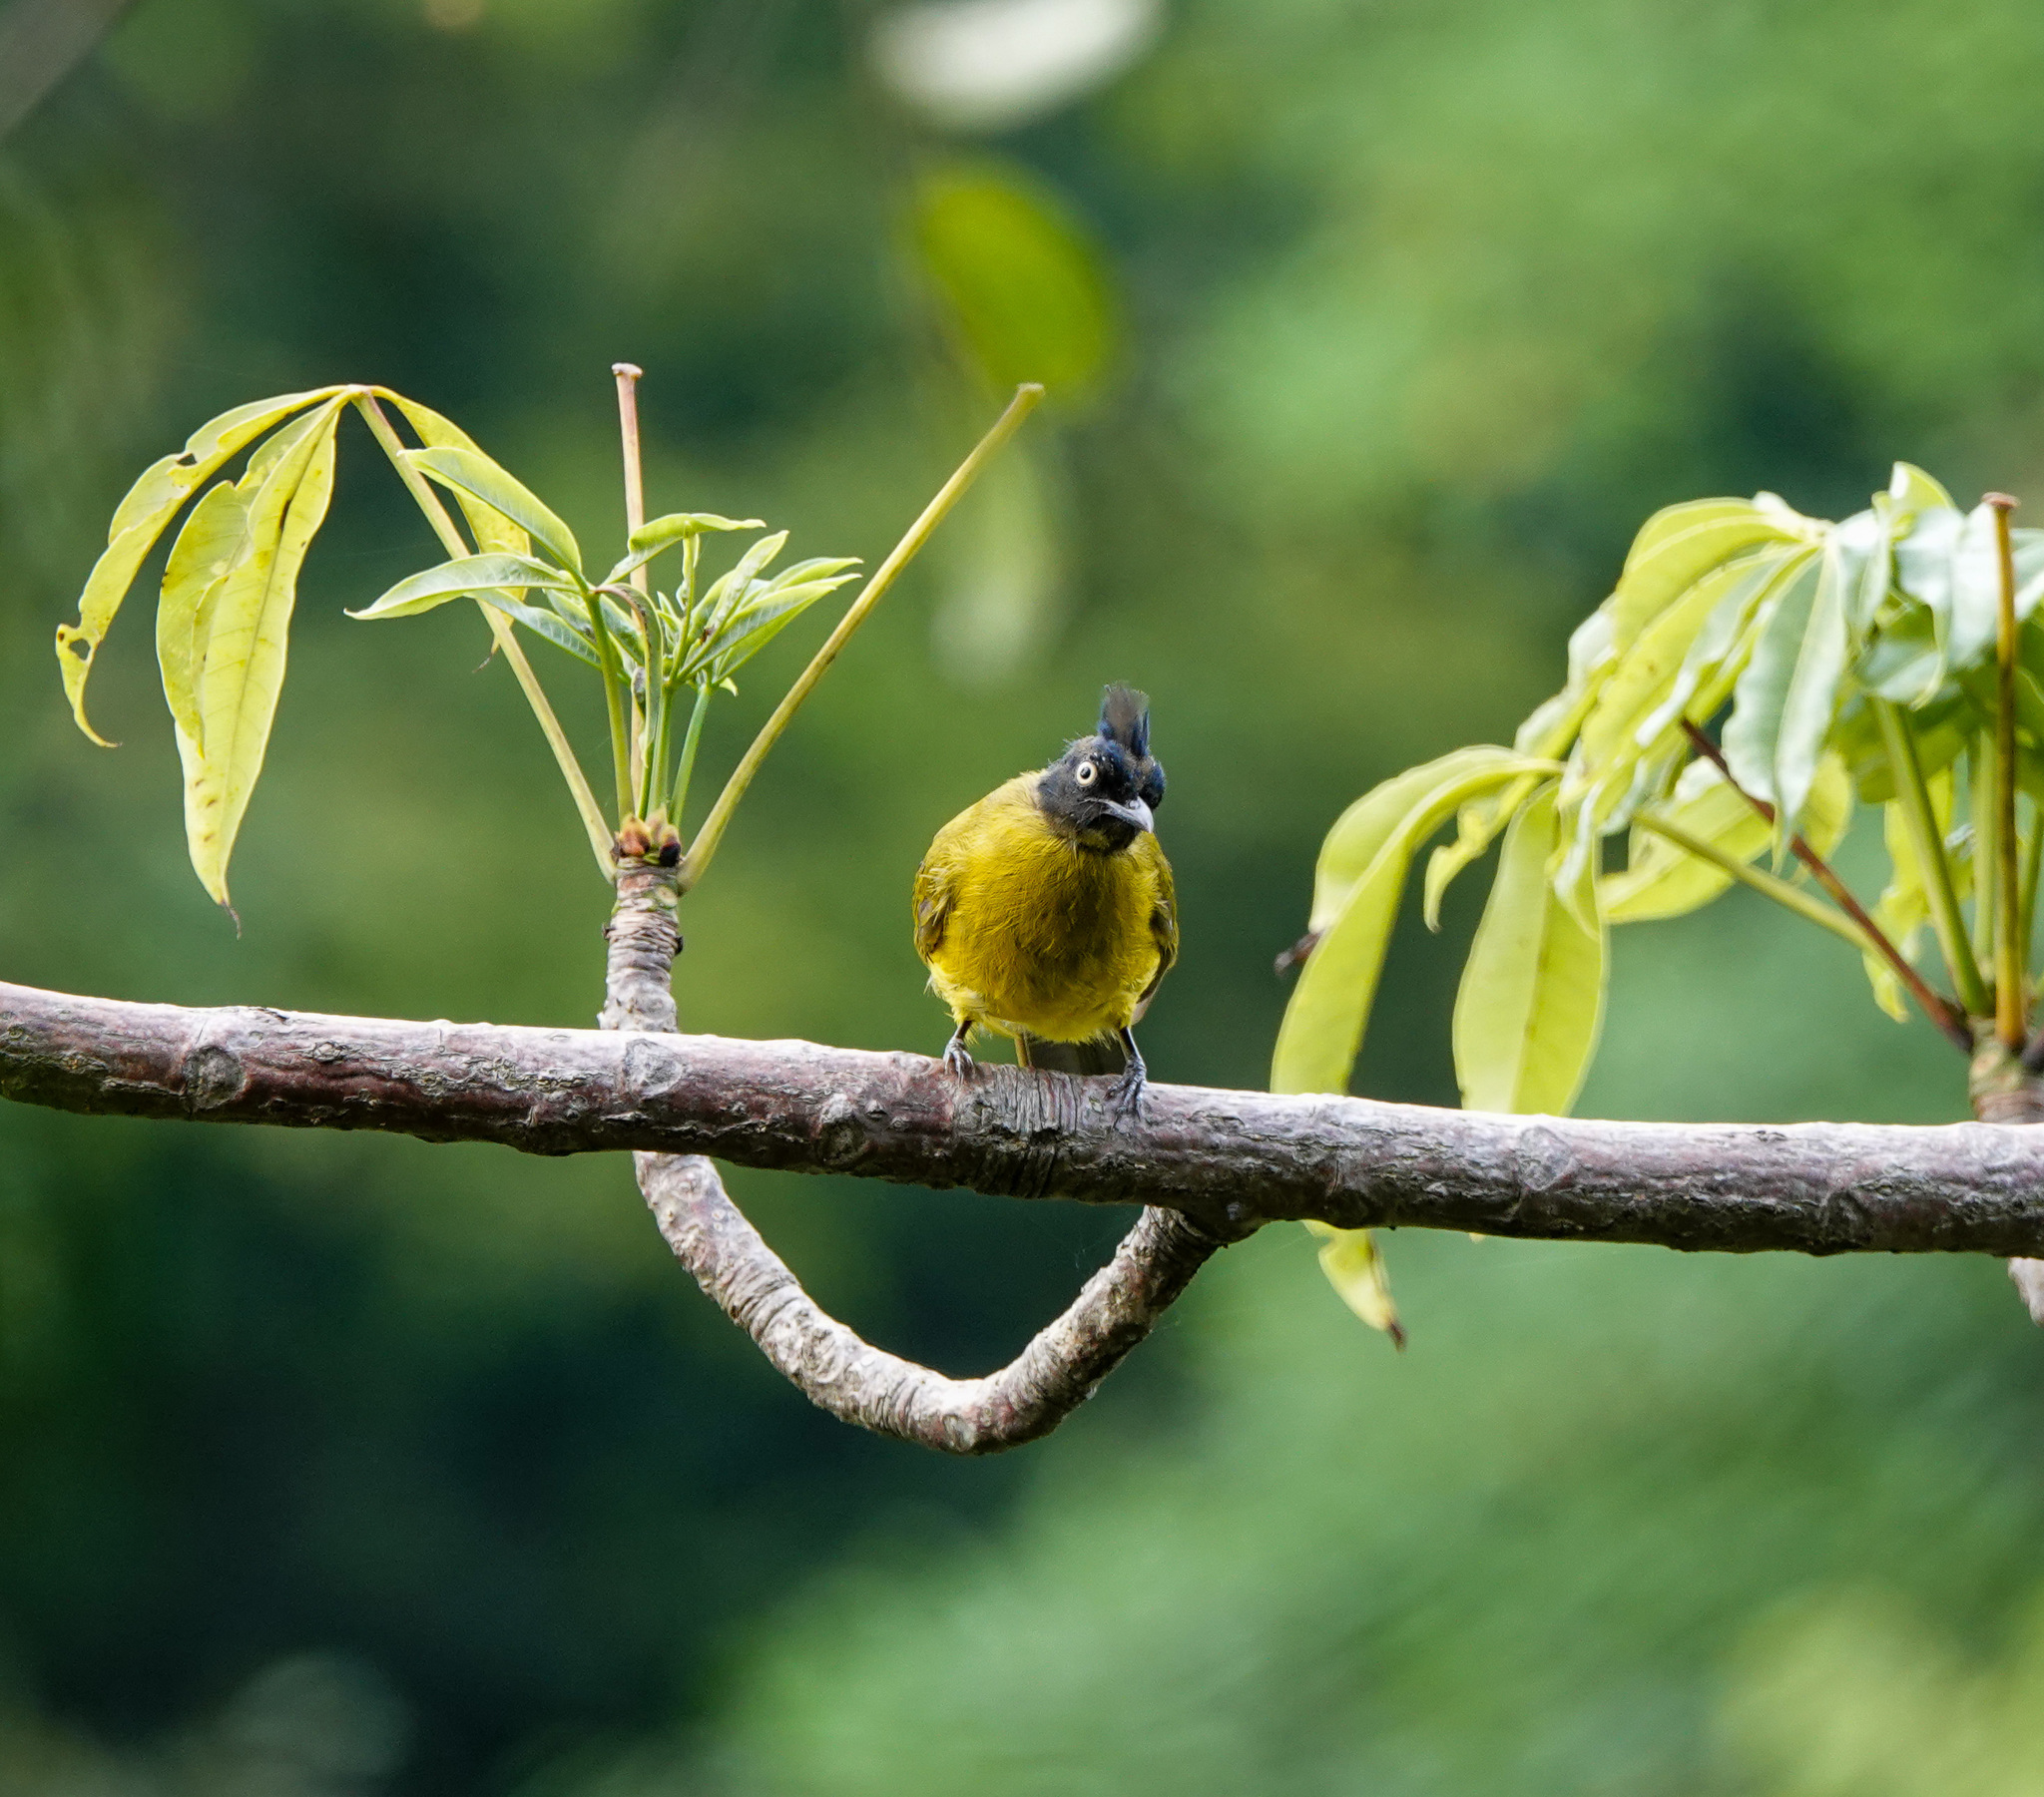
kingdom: Animalia
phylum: Chordata
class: Aves
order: Passeriformes
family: Pycnonotidae
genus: Pycnonotus
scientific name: Pycnonotus flaviventris
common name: Black-crested bulbul
